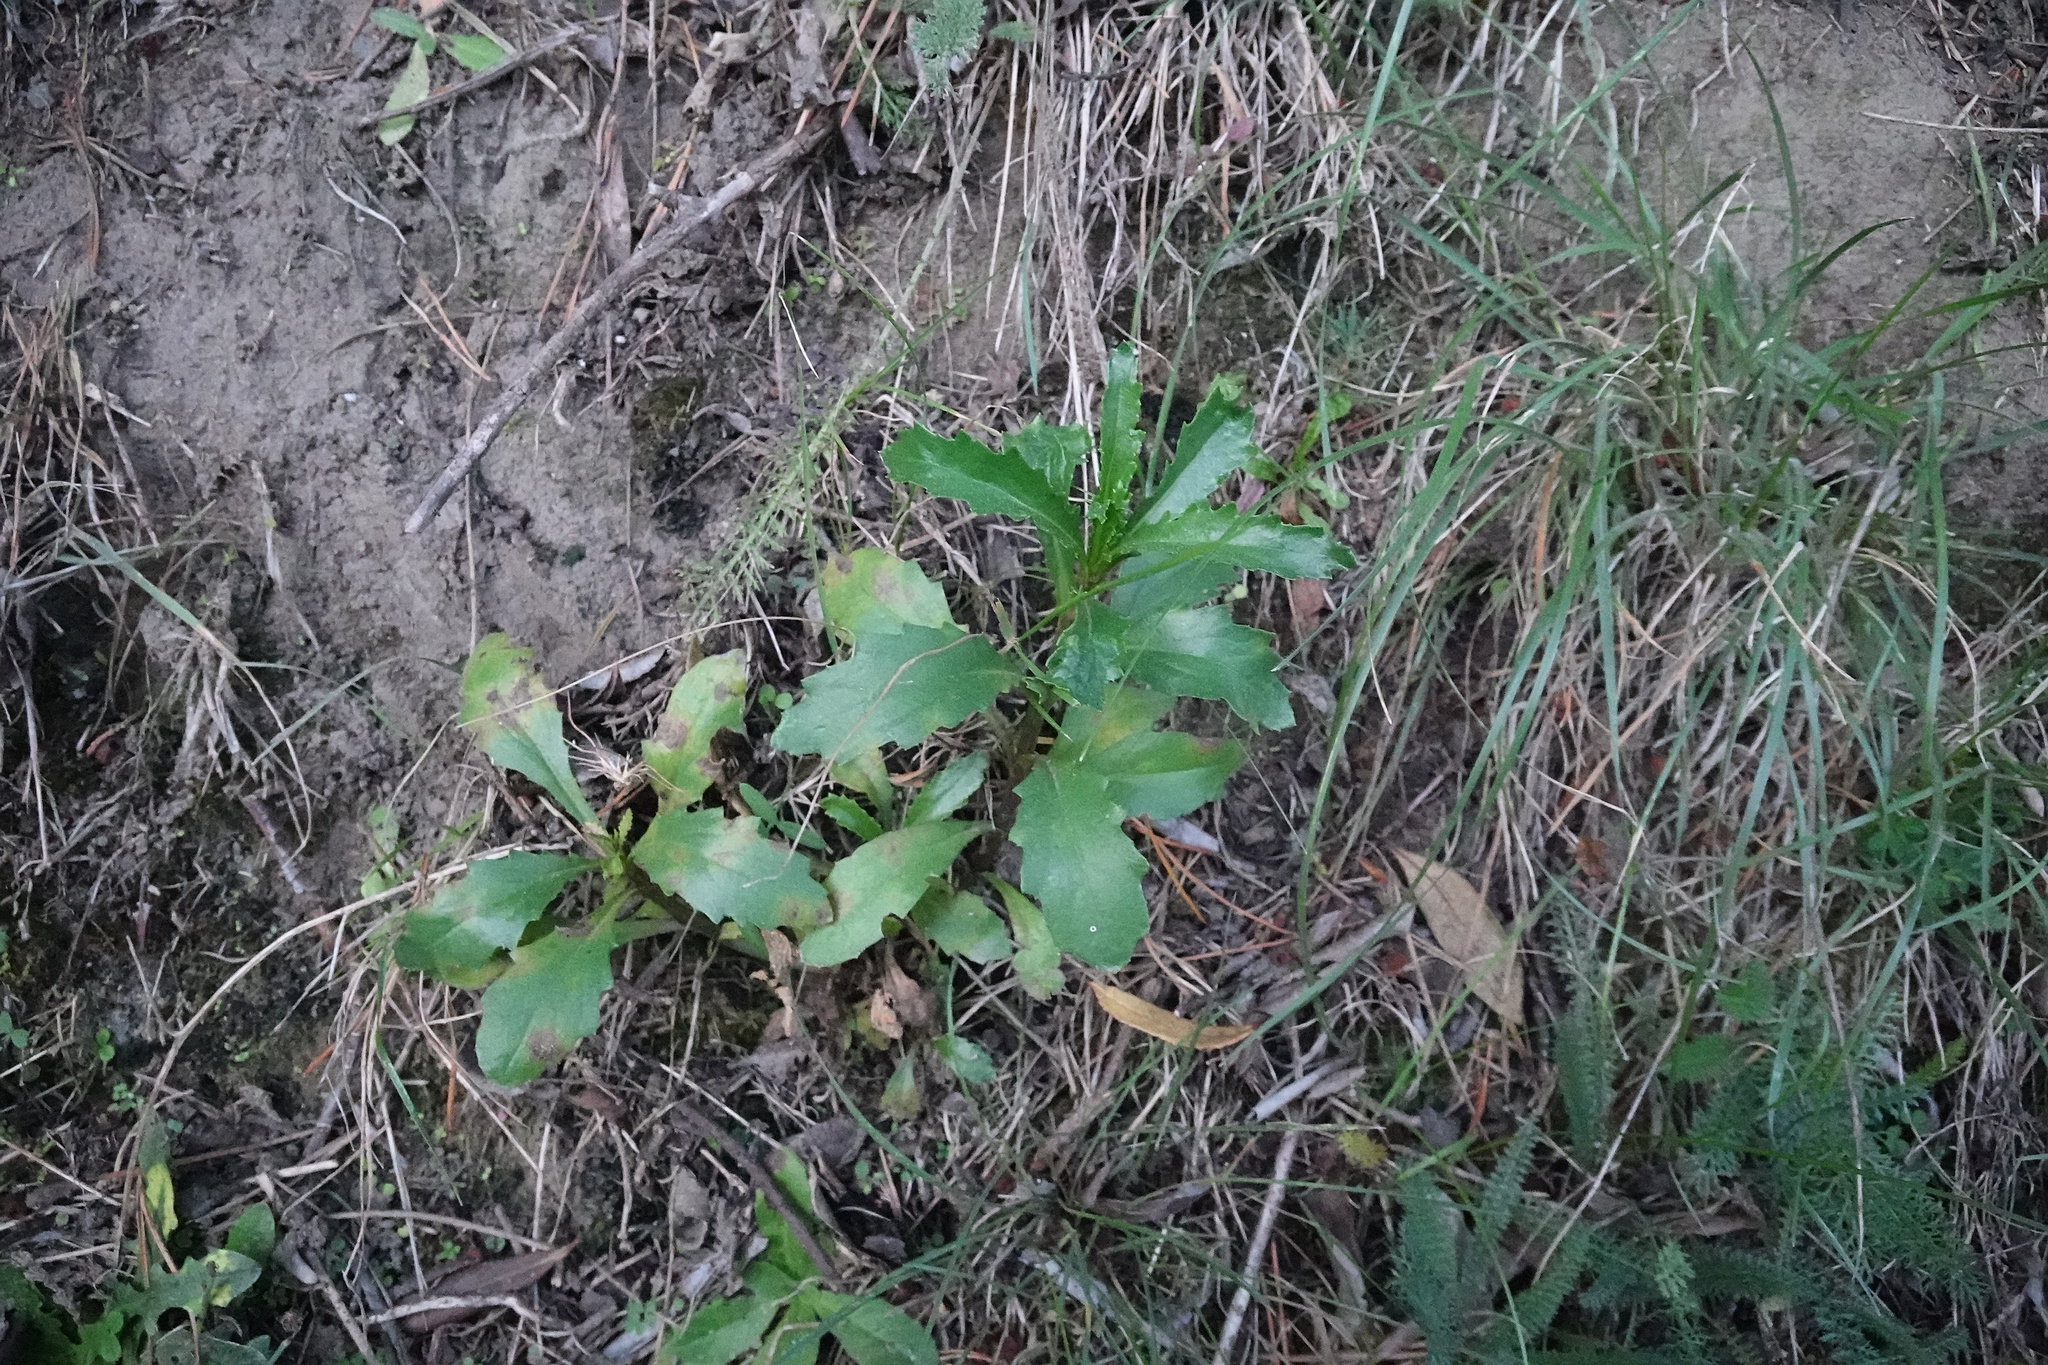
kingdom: Plantae
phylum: Tracheophyta
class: Magnoliopsida
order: Asterales
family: Asteraceae
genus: Senecio
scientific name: Senecio matatini
